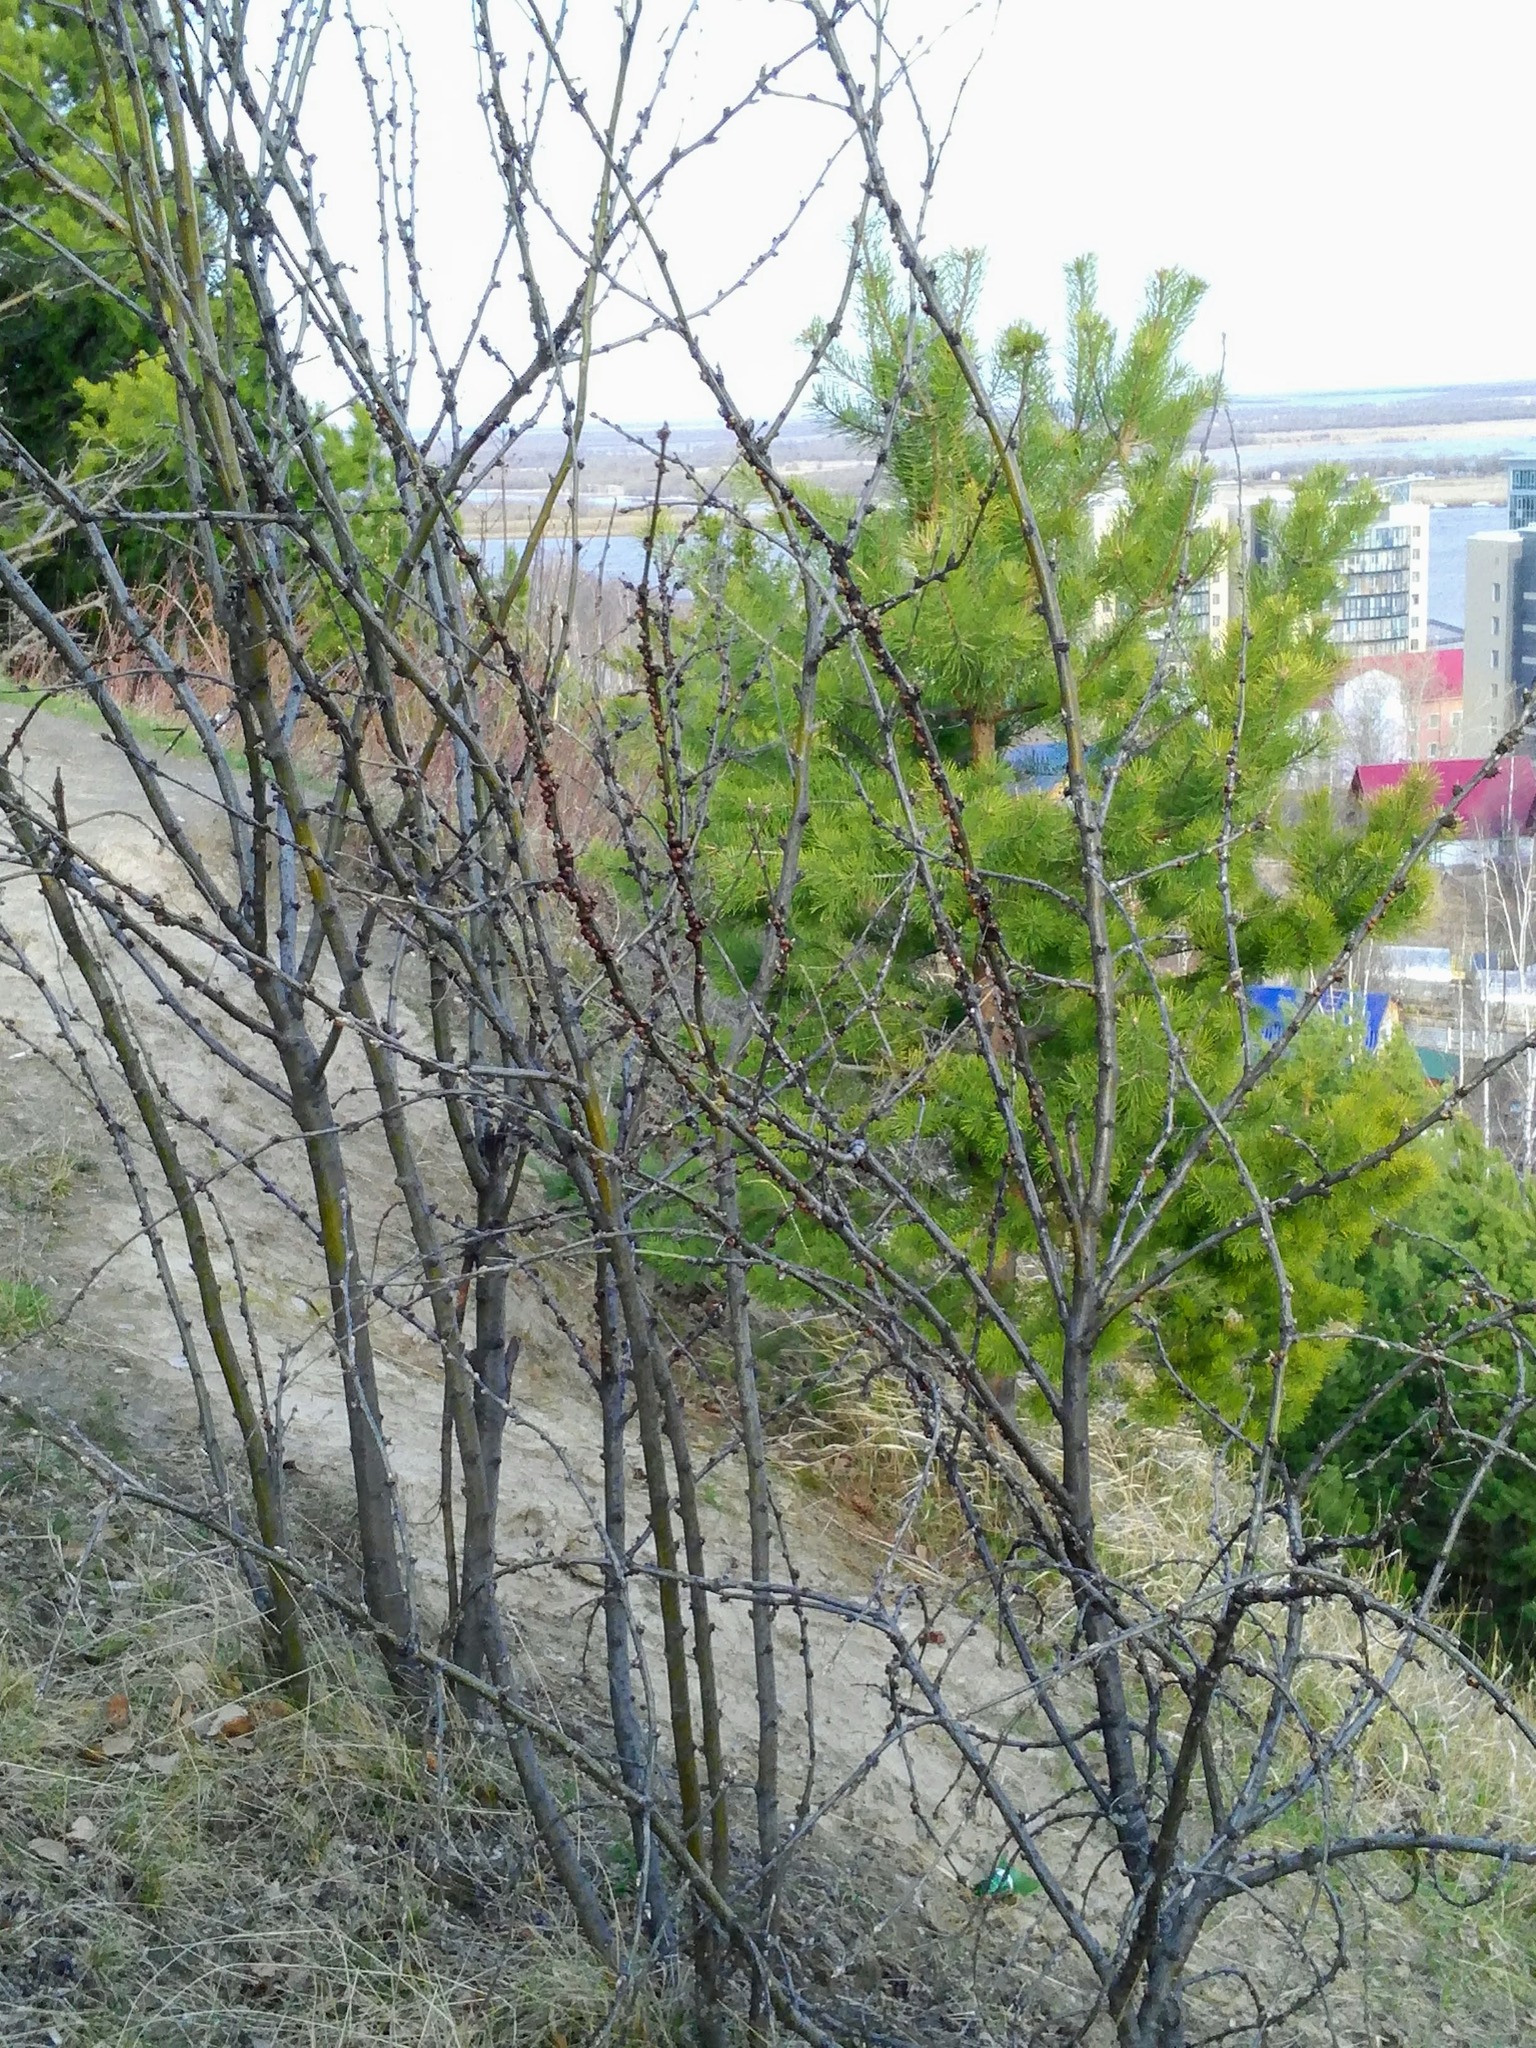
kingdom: Plantae
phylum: Tracheophyta
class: Magnoliopsida
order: Fabales
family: Fabaceae
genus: Caragana
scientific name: Caragana arborescens
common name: Siberian peashrub
